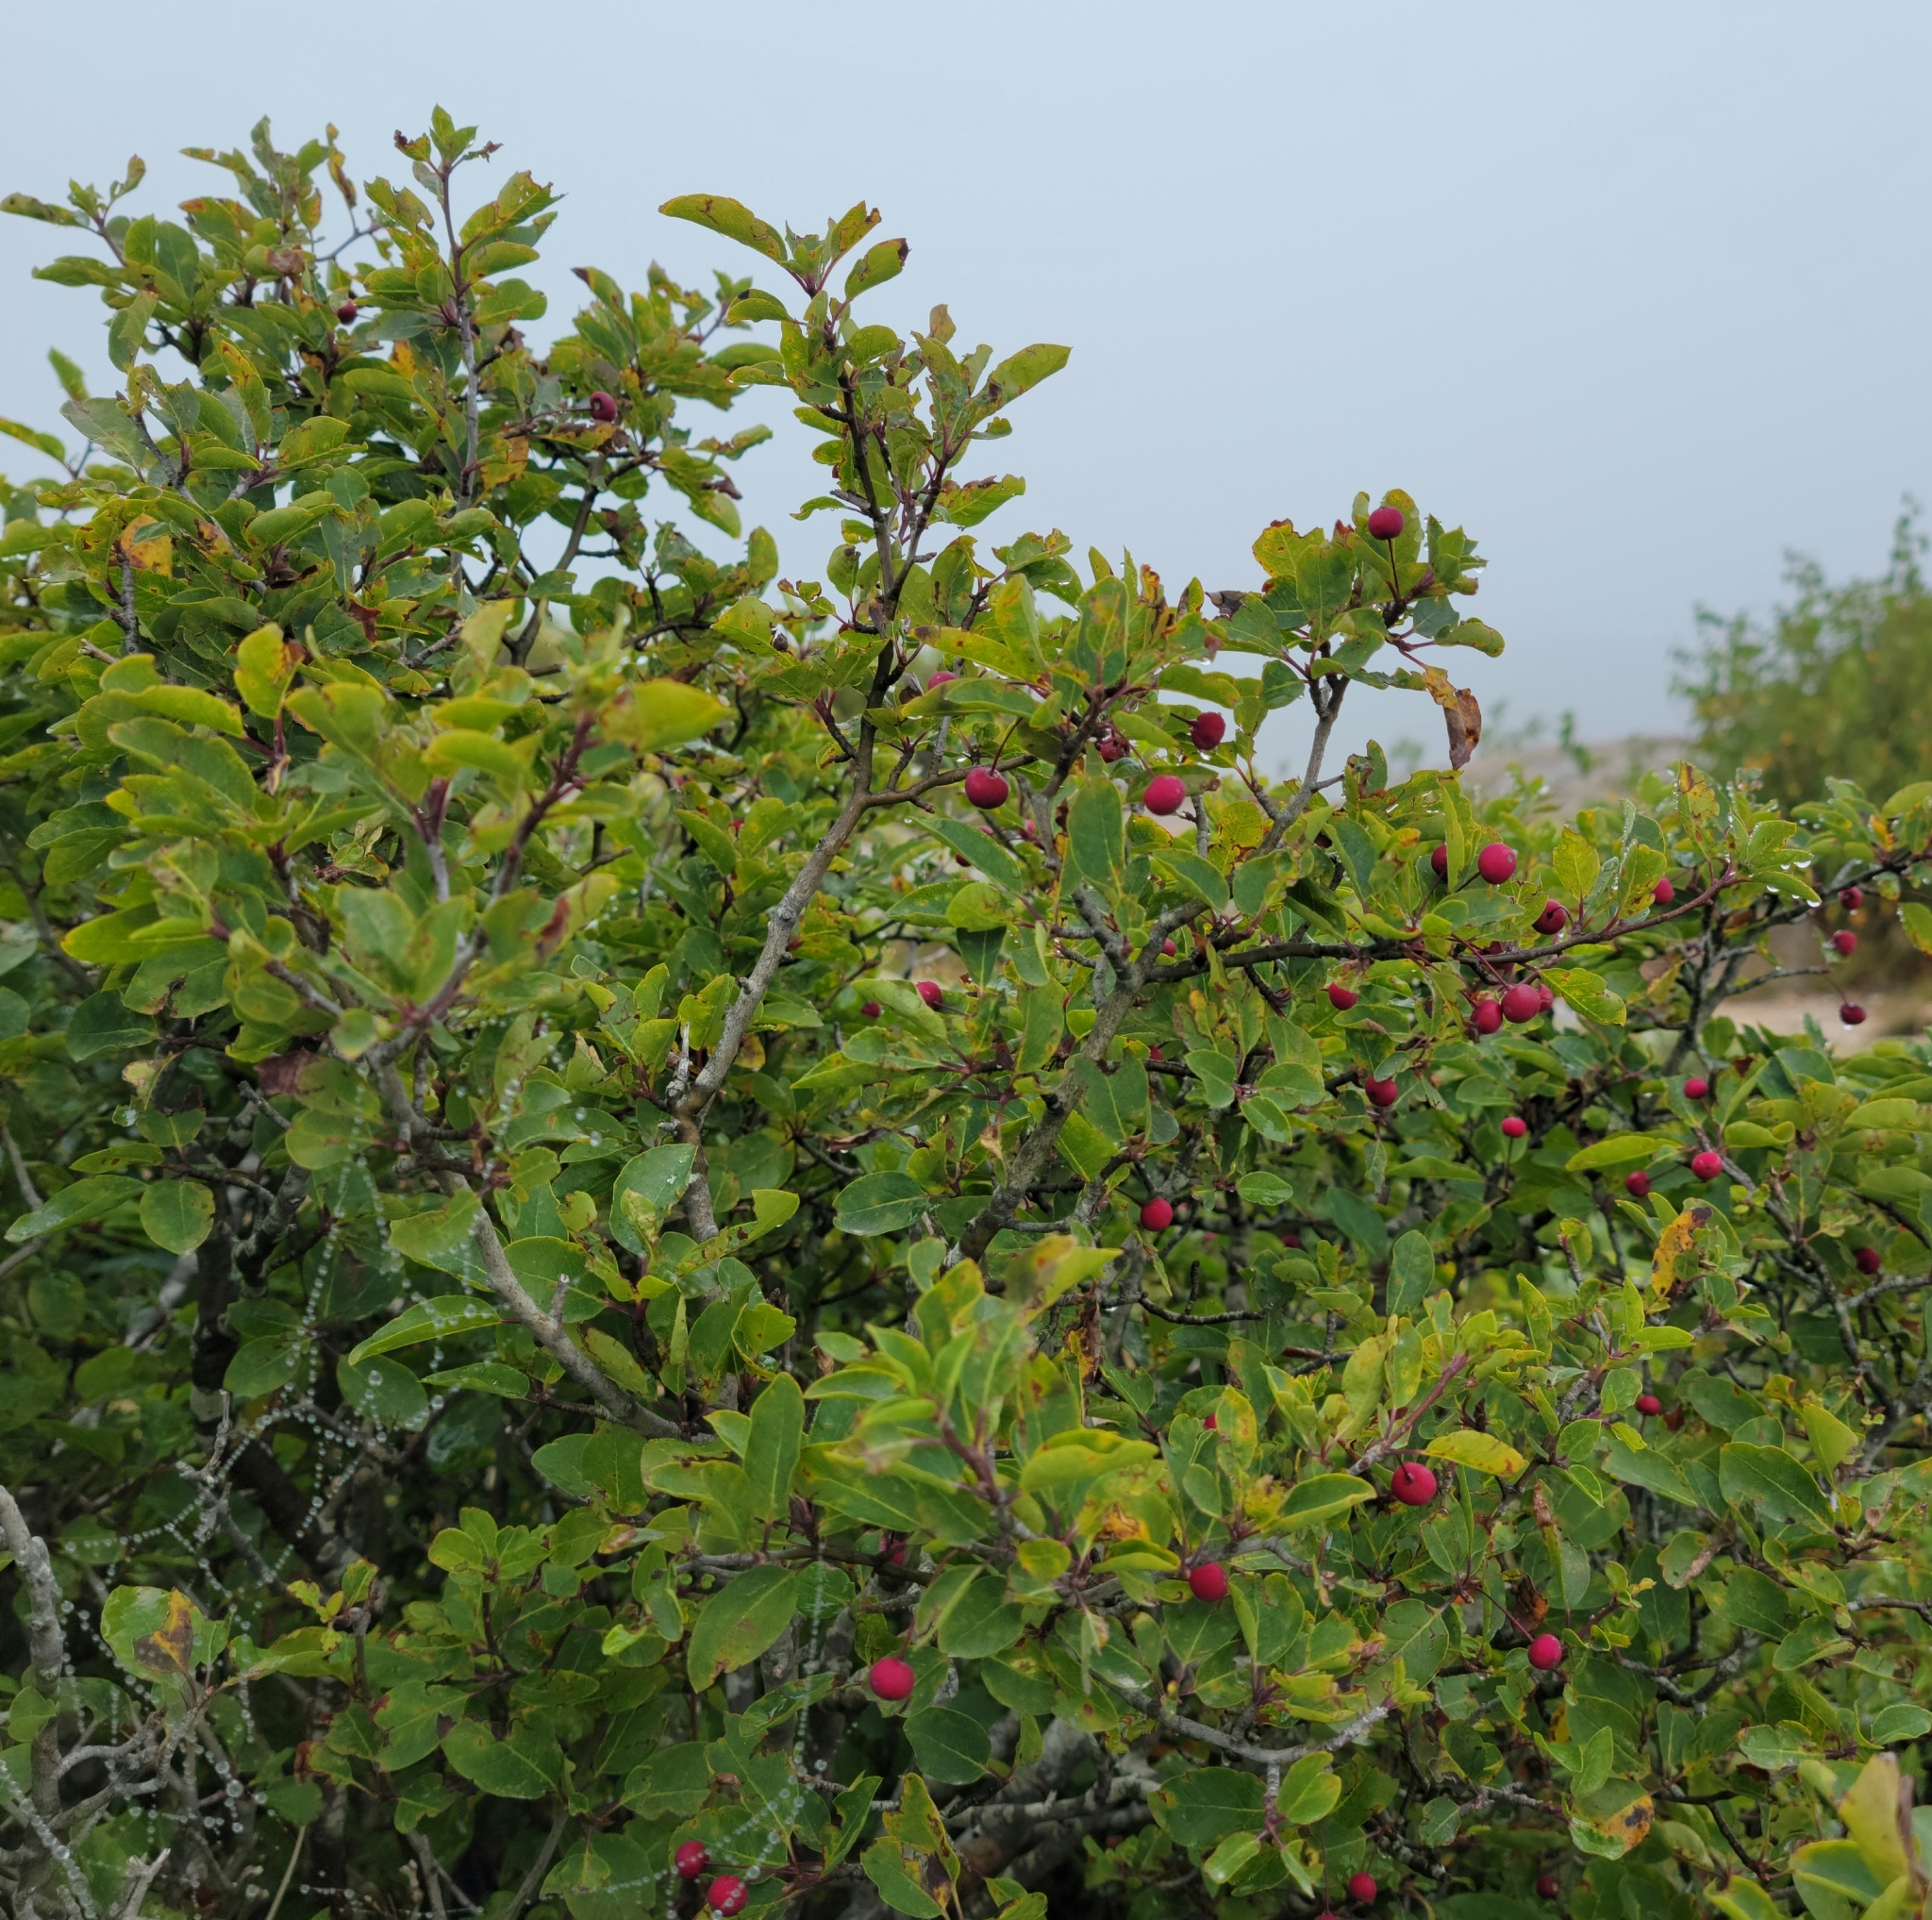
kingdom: Plantae
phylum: Tracheophyta
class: Magnoliopsida
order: Aquifoliales
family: Aquifoliaceae
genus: Ilex
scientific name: Ilex mucronata
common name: Catberry
